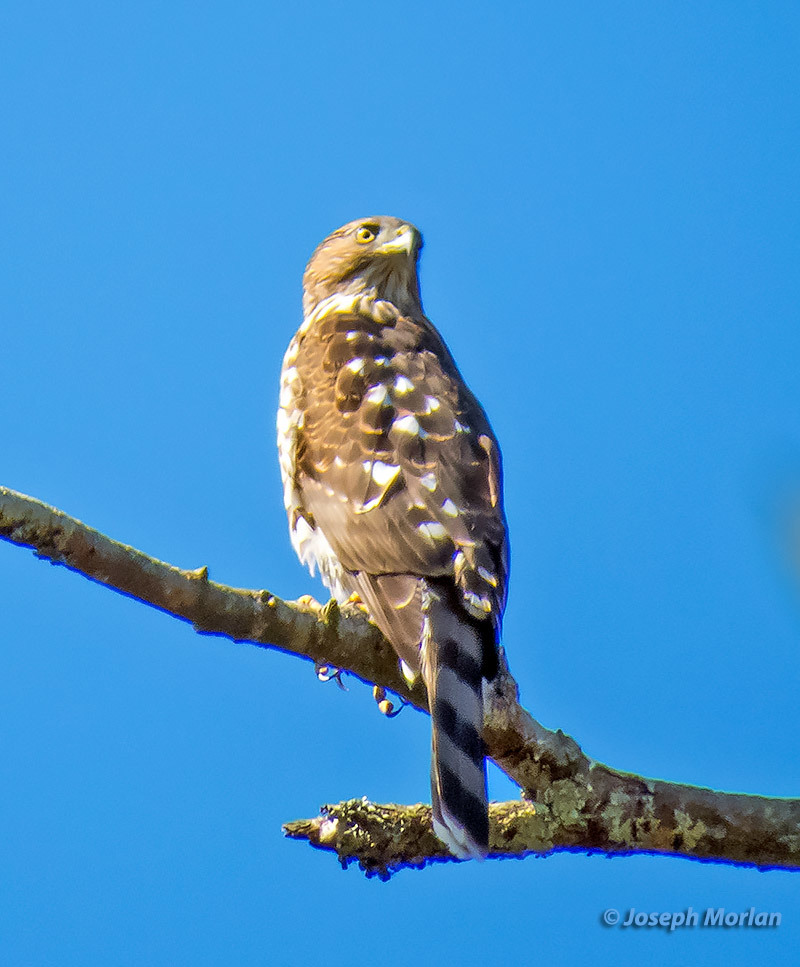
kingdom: Animalia
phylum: Chordata
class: Aves
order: Accipitriformes
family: Accipitridae
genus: Accipiter
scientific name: Accipiter cooperii
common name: Cooper's hawk
